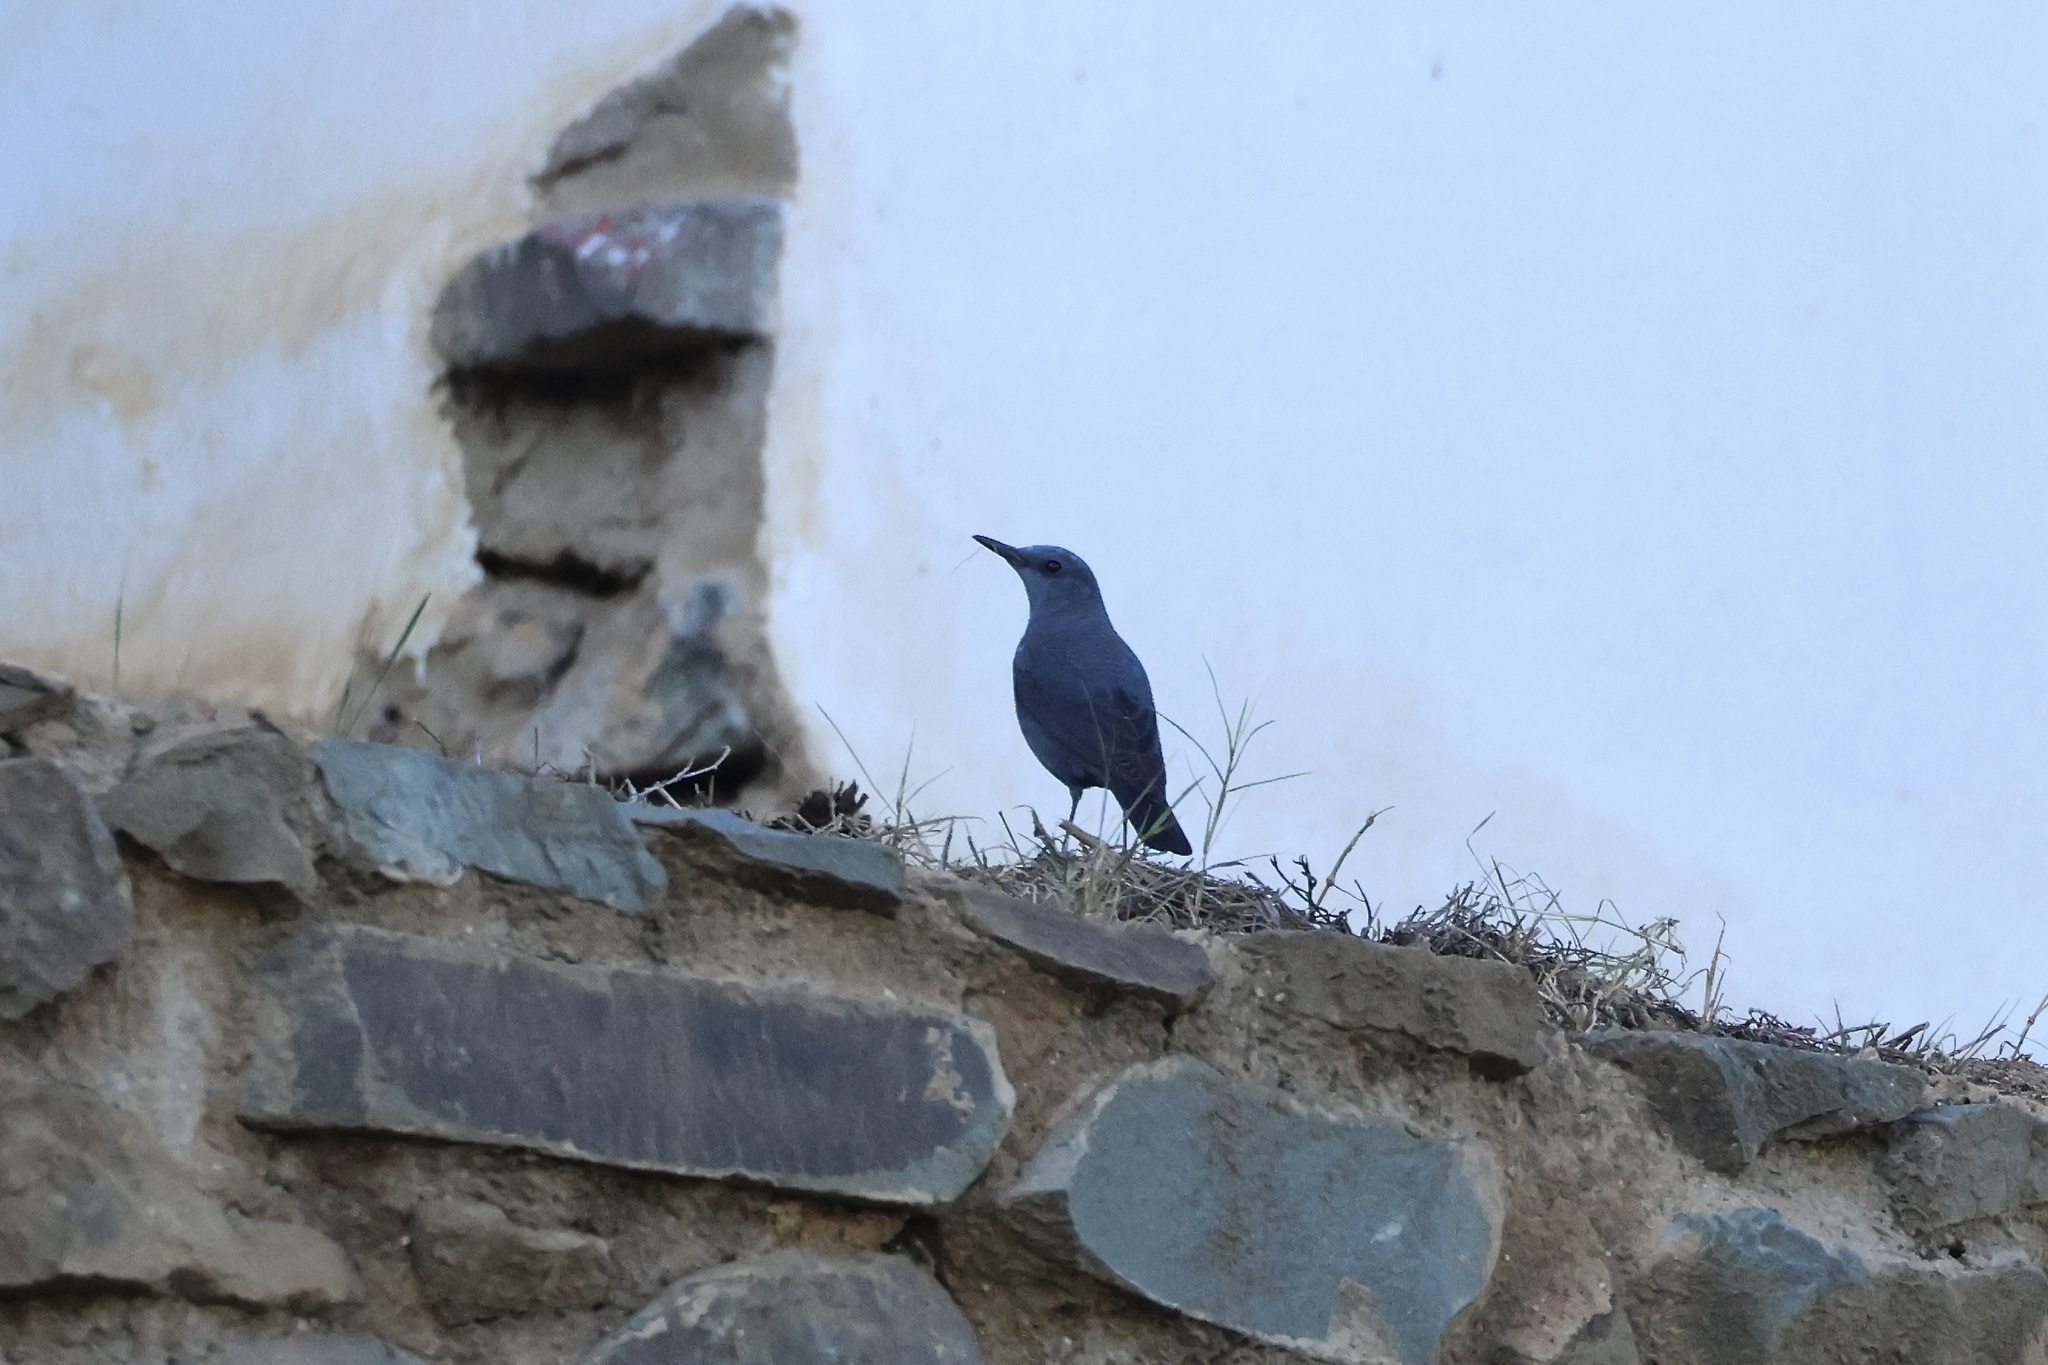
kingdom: Animalia
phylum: Chordata
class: Aves
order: Passeriformes
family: Muscicapidae
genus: Monticola
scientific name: Monticola solitarius
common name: Blue rock thrush
